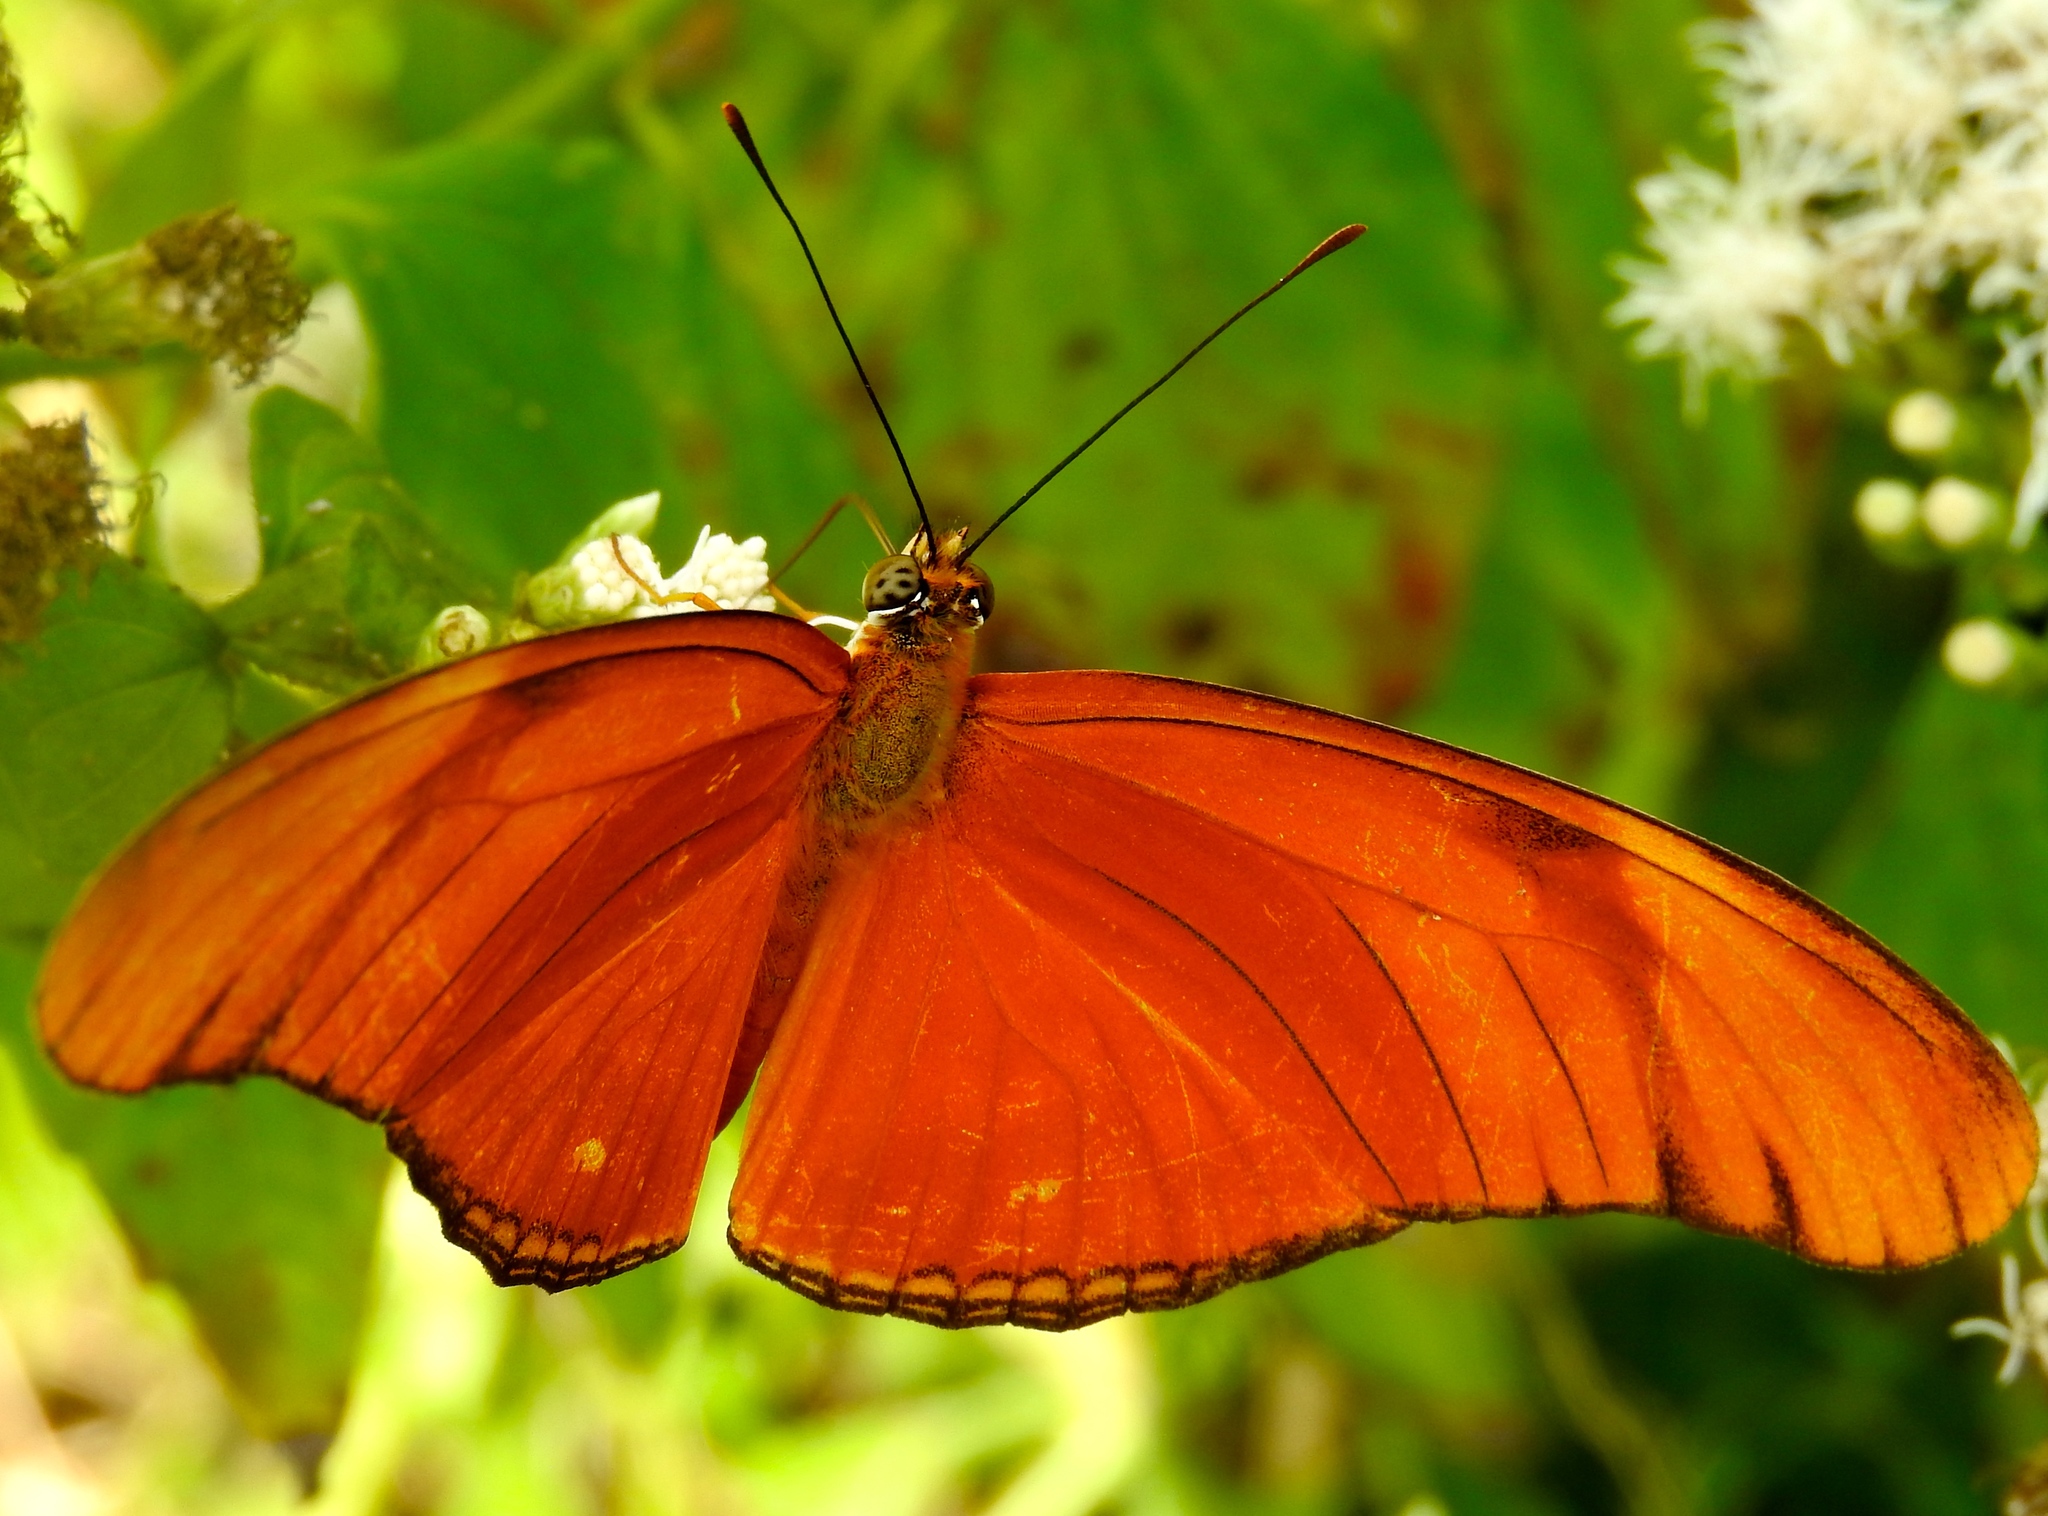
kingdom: Animalia
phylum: Arthropoda
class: Insecta
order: Lepidoptera
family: Nymphalidae
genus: Dryas
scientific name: Dryas iulia
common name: Flambeau
